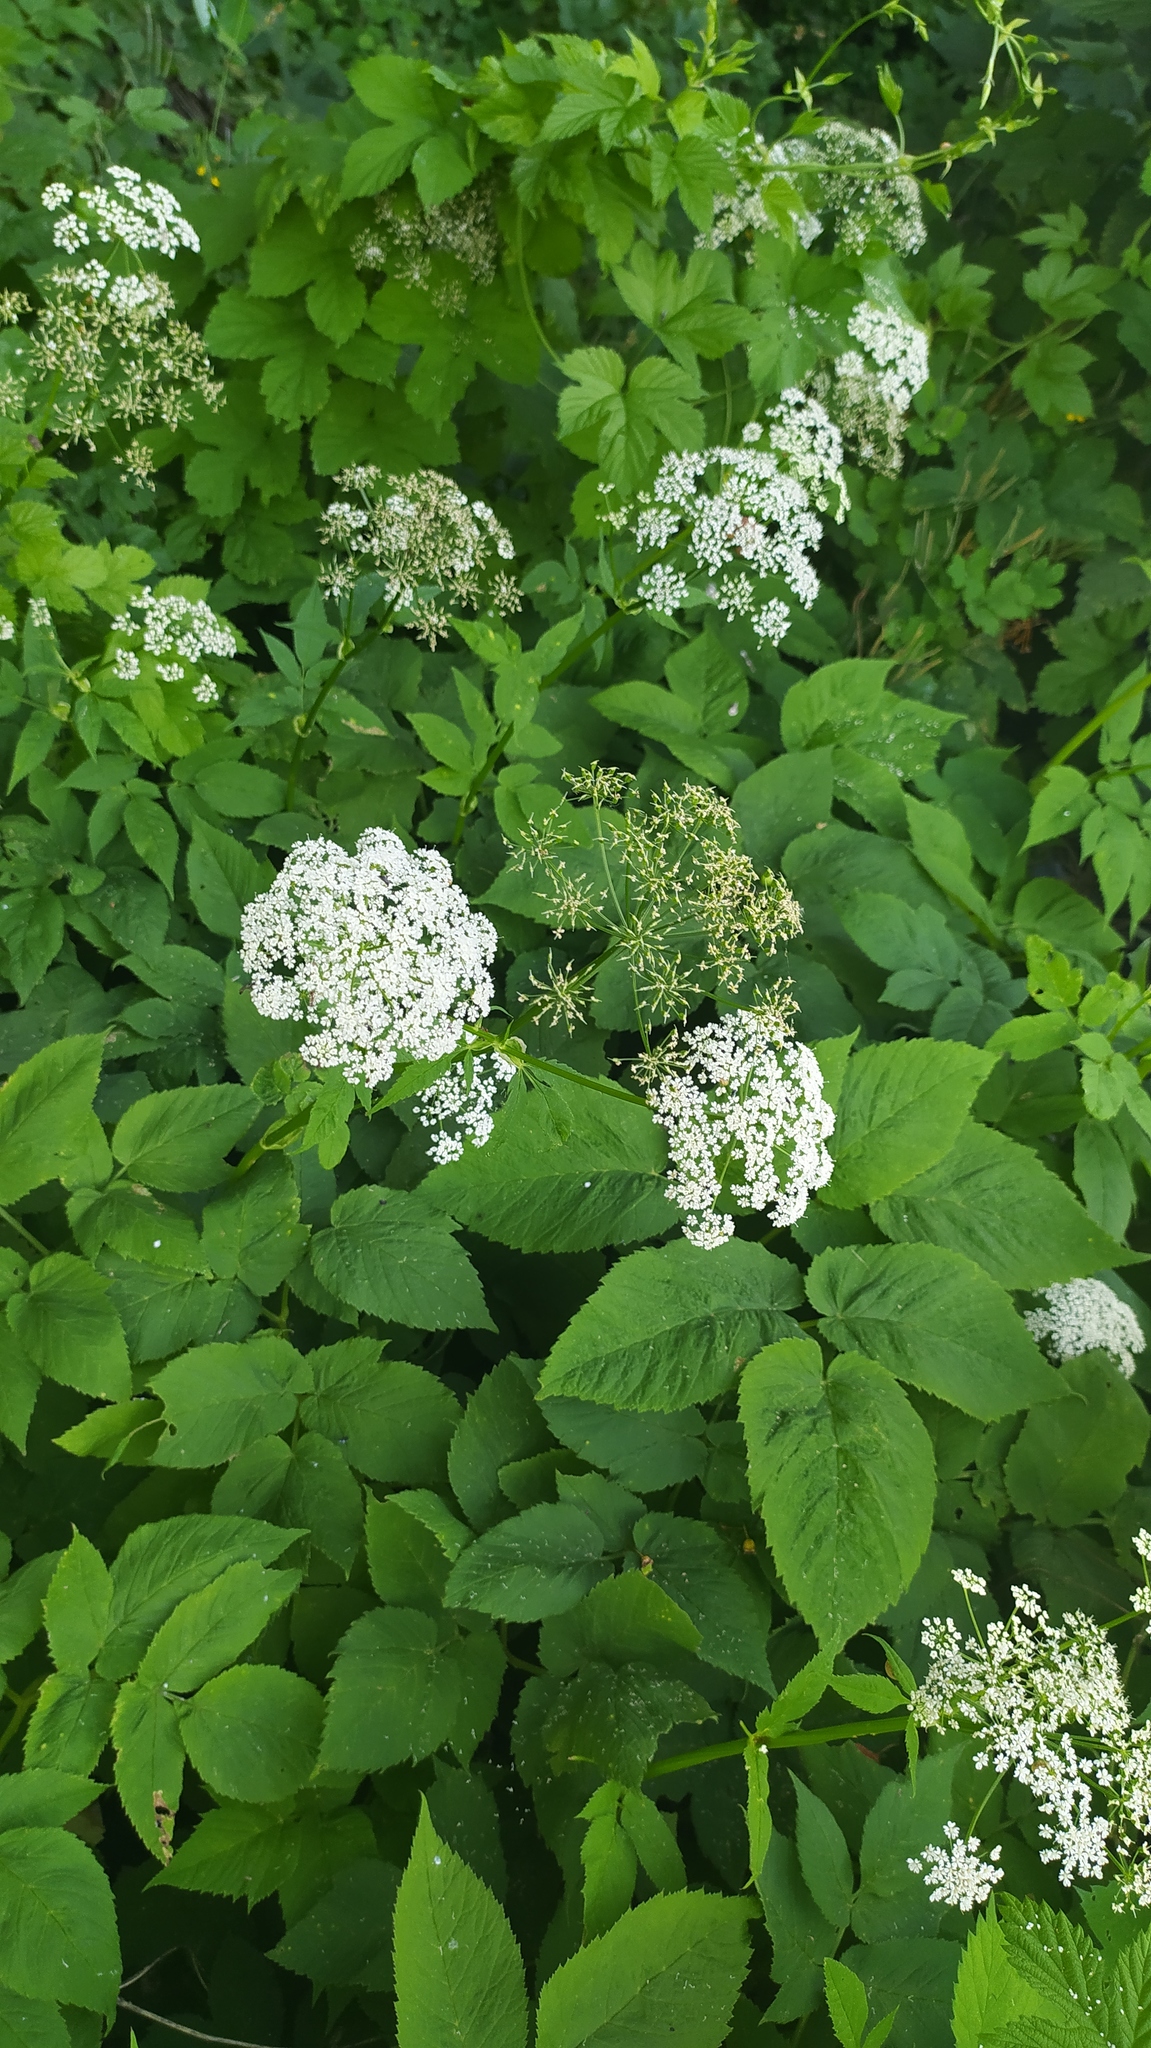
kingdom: Plantae
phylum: Tracheophyta
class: Magnoliopsida
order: Apiales
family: Apiaceae
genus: Aegopodium
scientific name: Aegopodium podagraria
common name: Ground-elder
